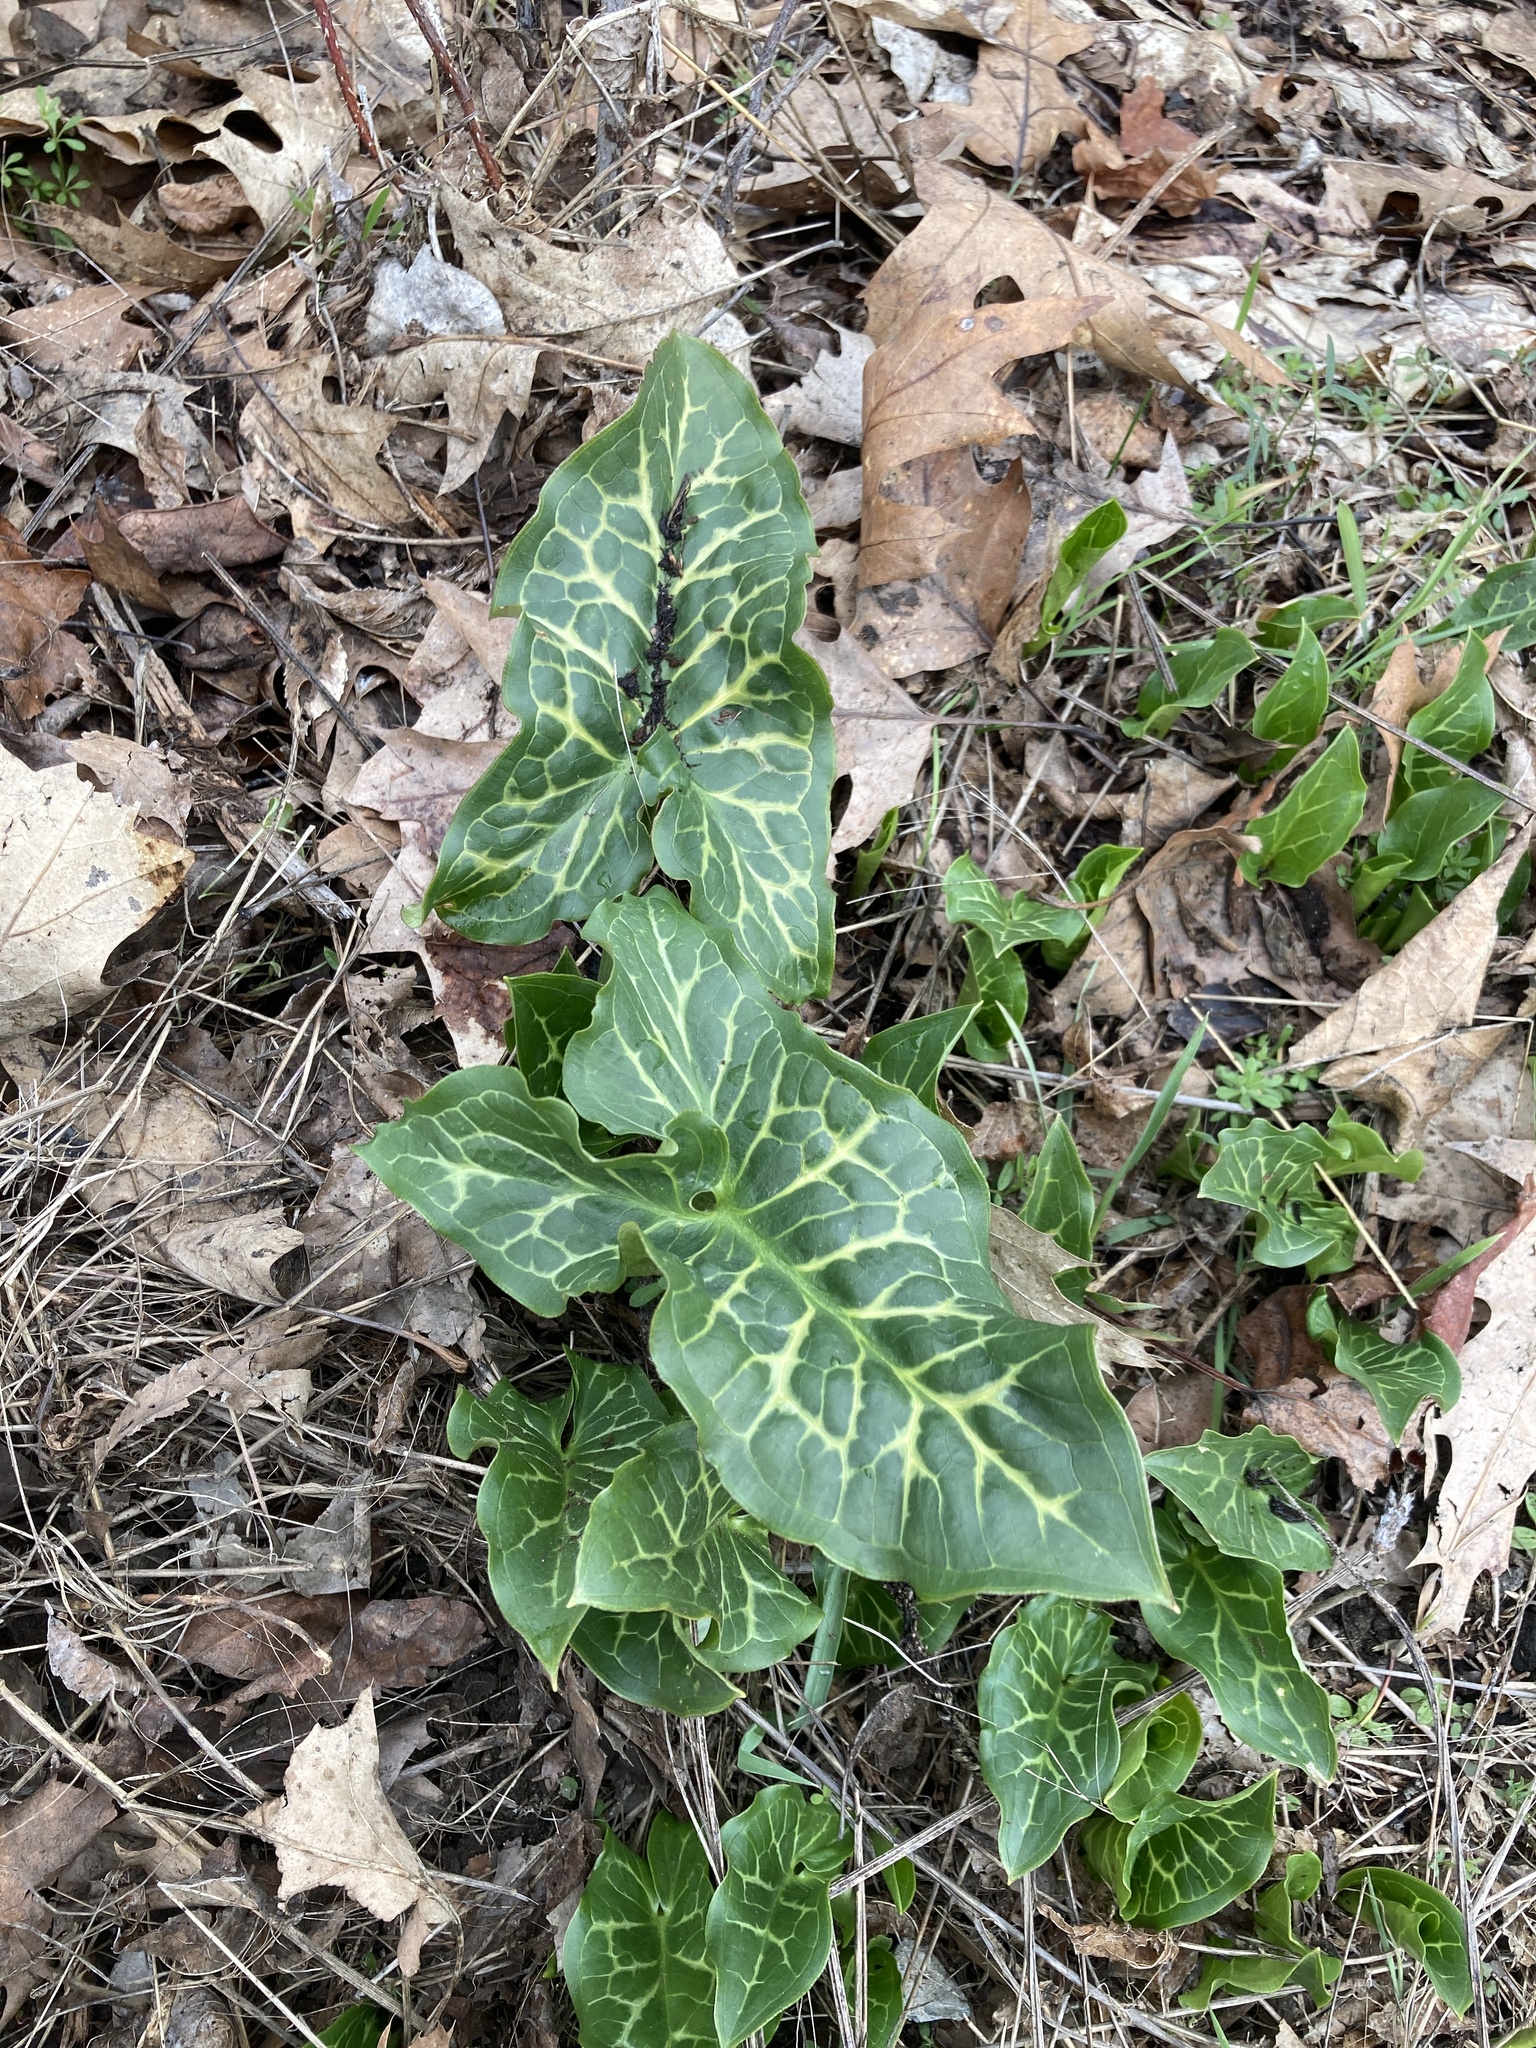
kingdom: Plantae
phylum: Tracheophyta
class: Liliopsida
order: Alismatales
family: Araceae
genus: Arum
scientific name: Arum italicum
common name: Italian lords-and-ladies
